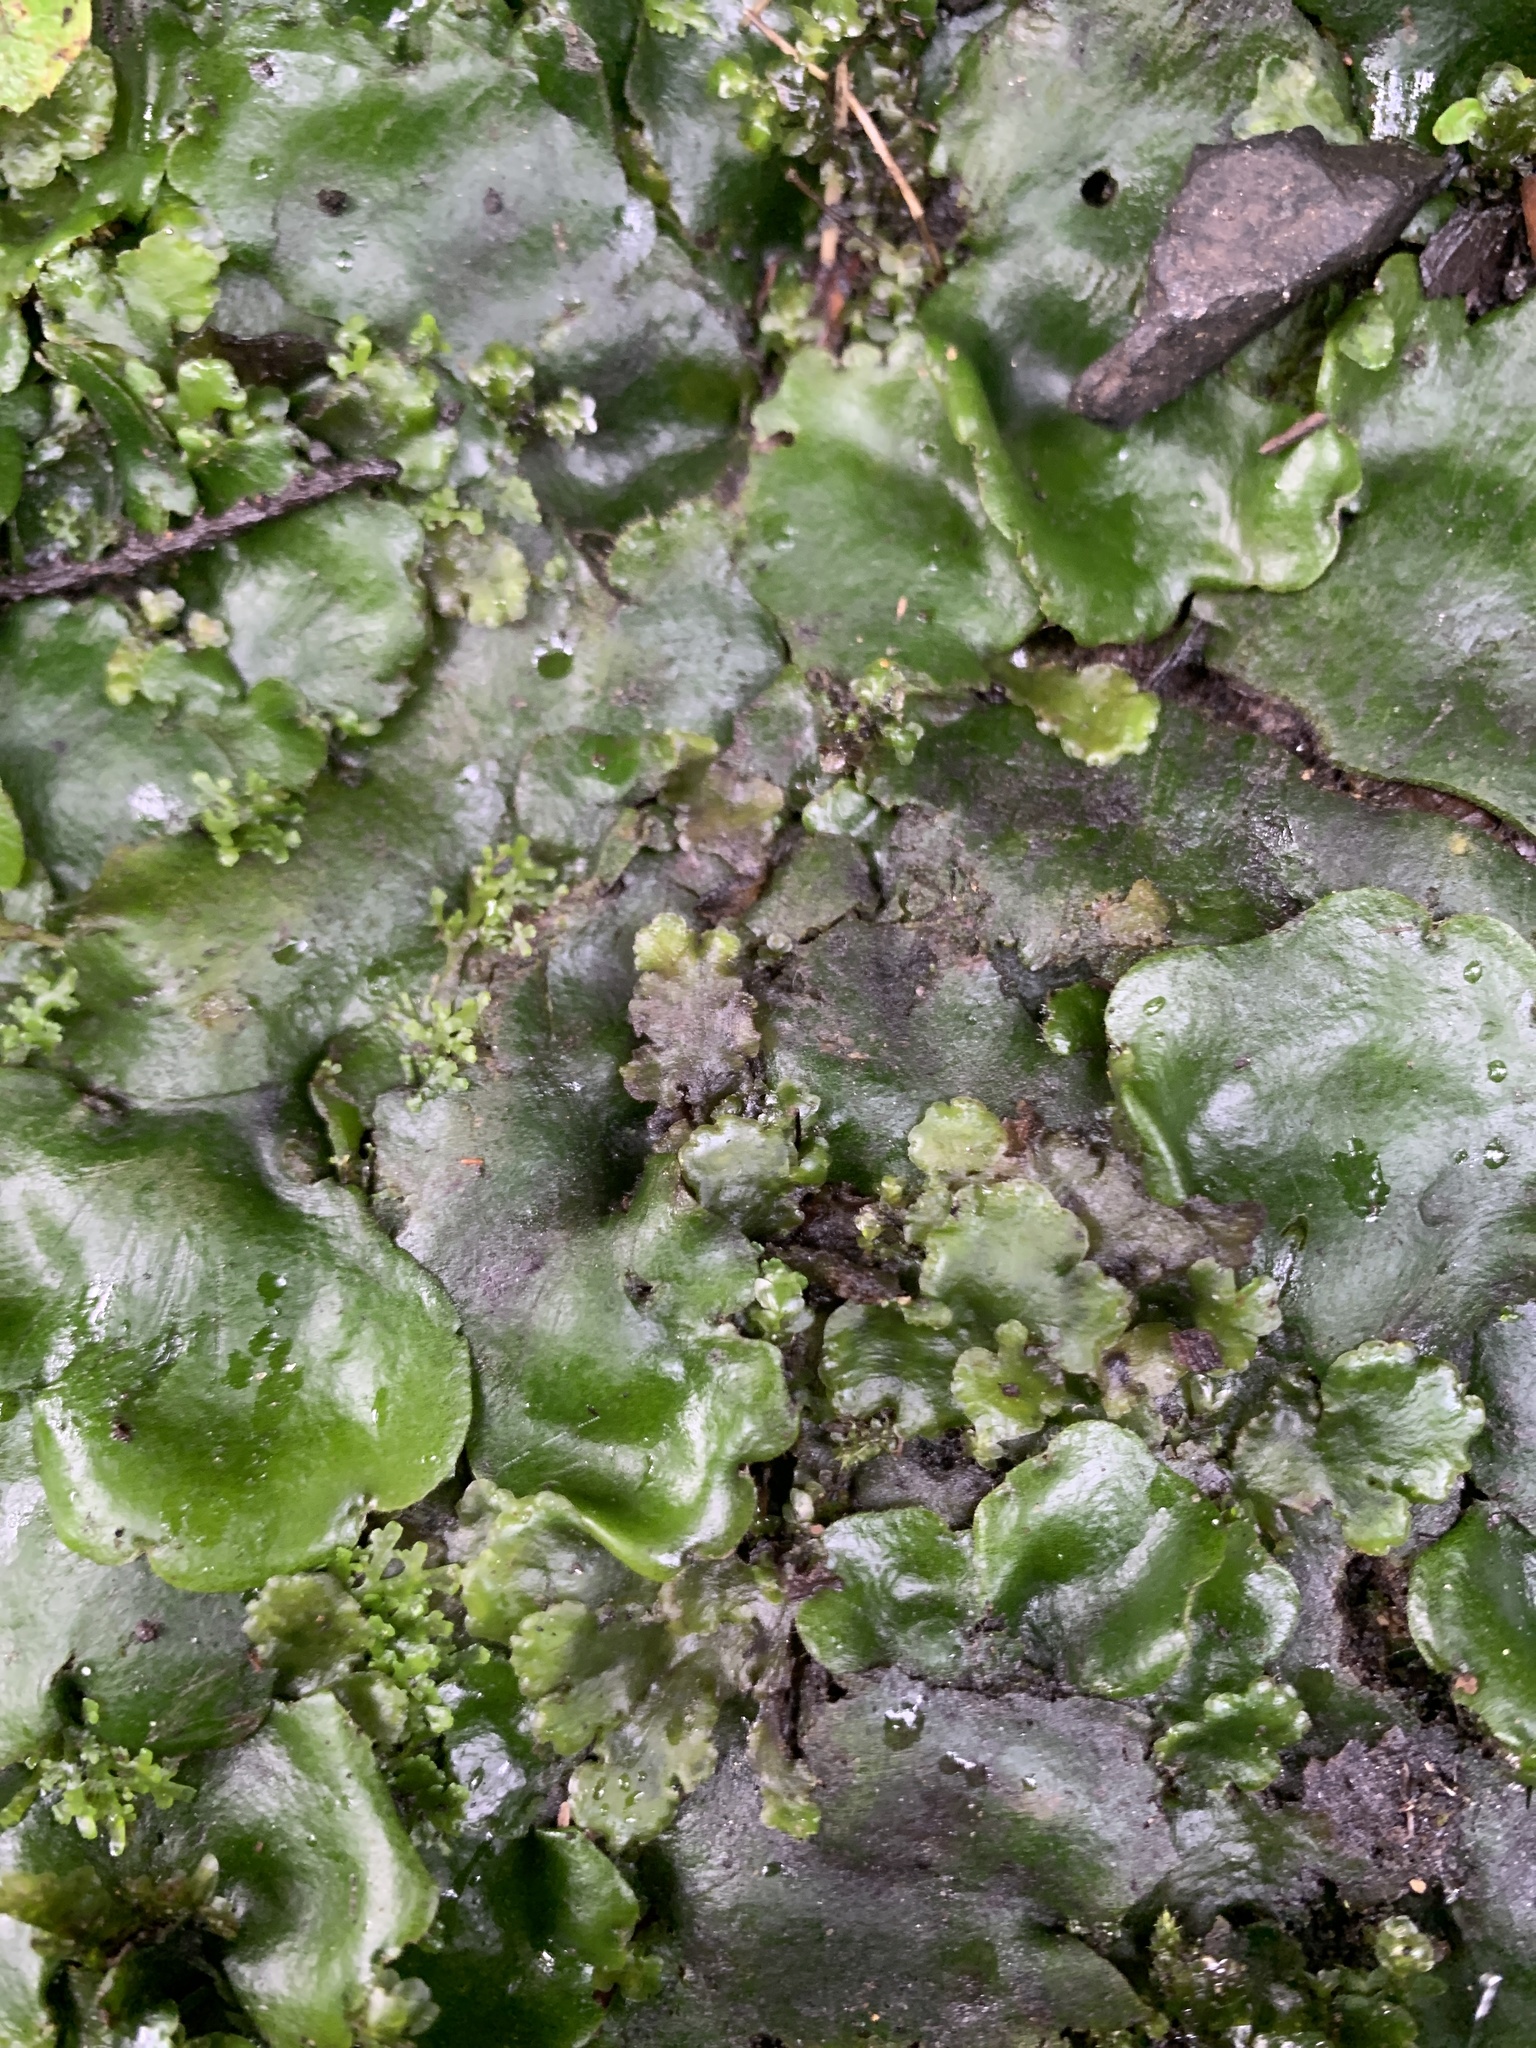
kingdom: Plantae
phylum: Marchantiophyta
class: Marchantiopsida
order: Marchantiales
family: Monocleaceae
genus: Monoclea
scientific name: Monoclea forsteri
